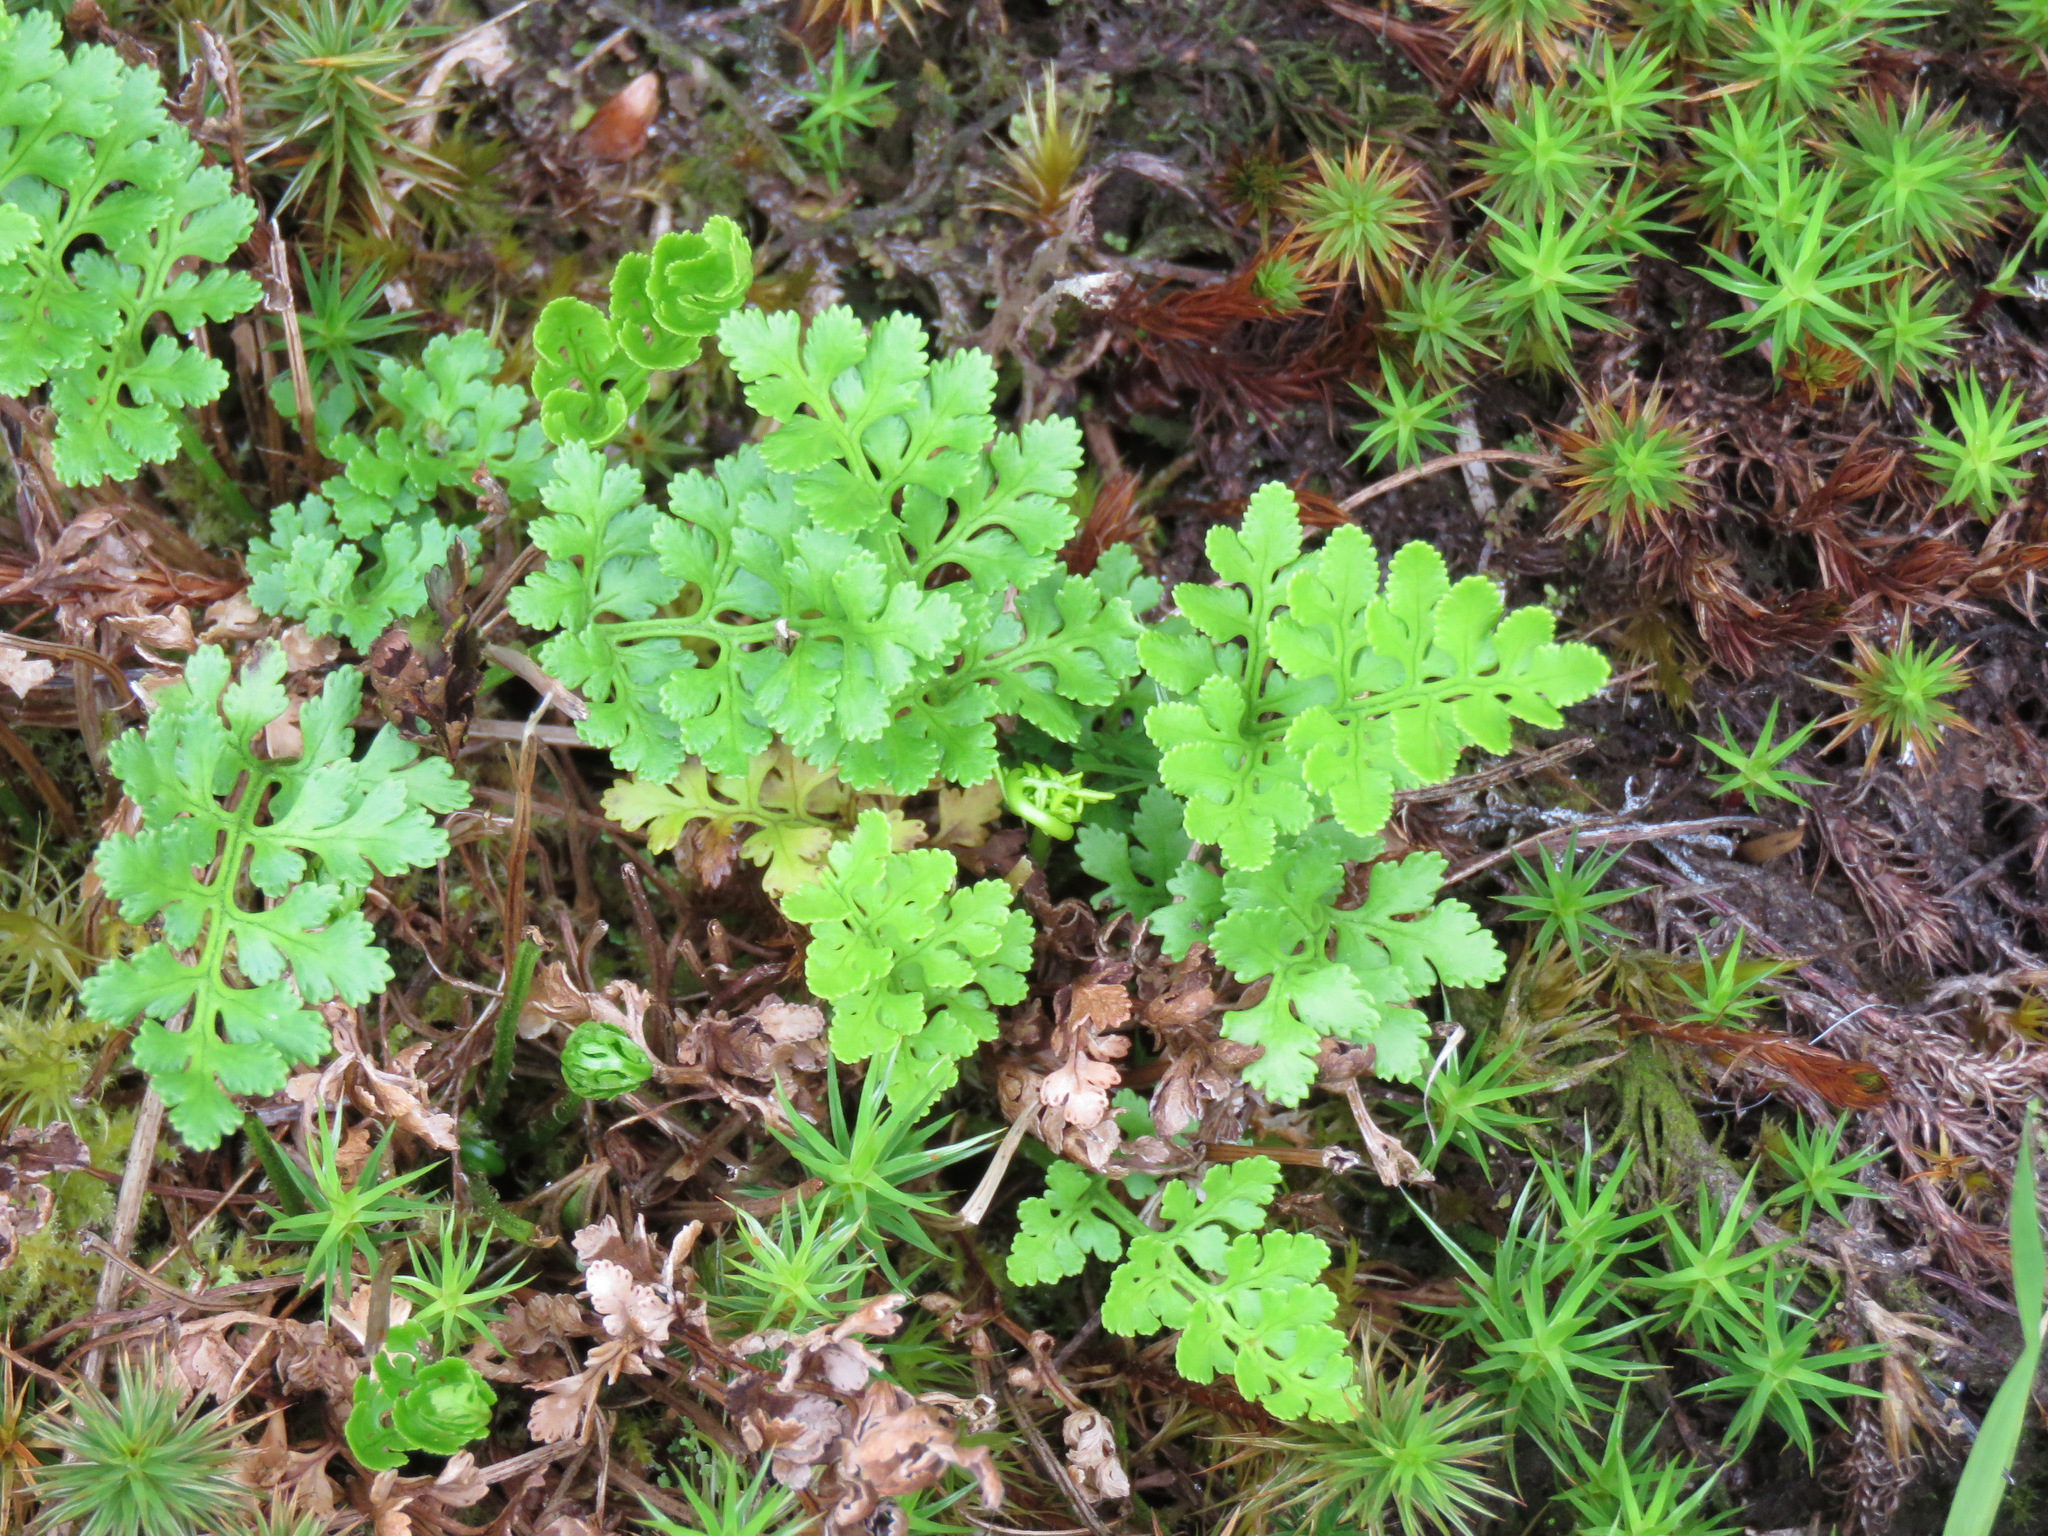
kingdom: Plantae
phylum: Tracheophyta
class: Polypodiopsida
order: Polypodiales
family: Pteridaceae
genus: Cryptogramma
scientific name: Cryptogramma acrostichoides
